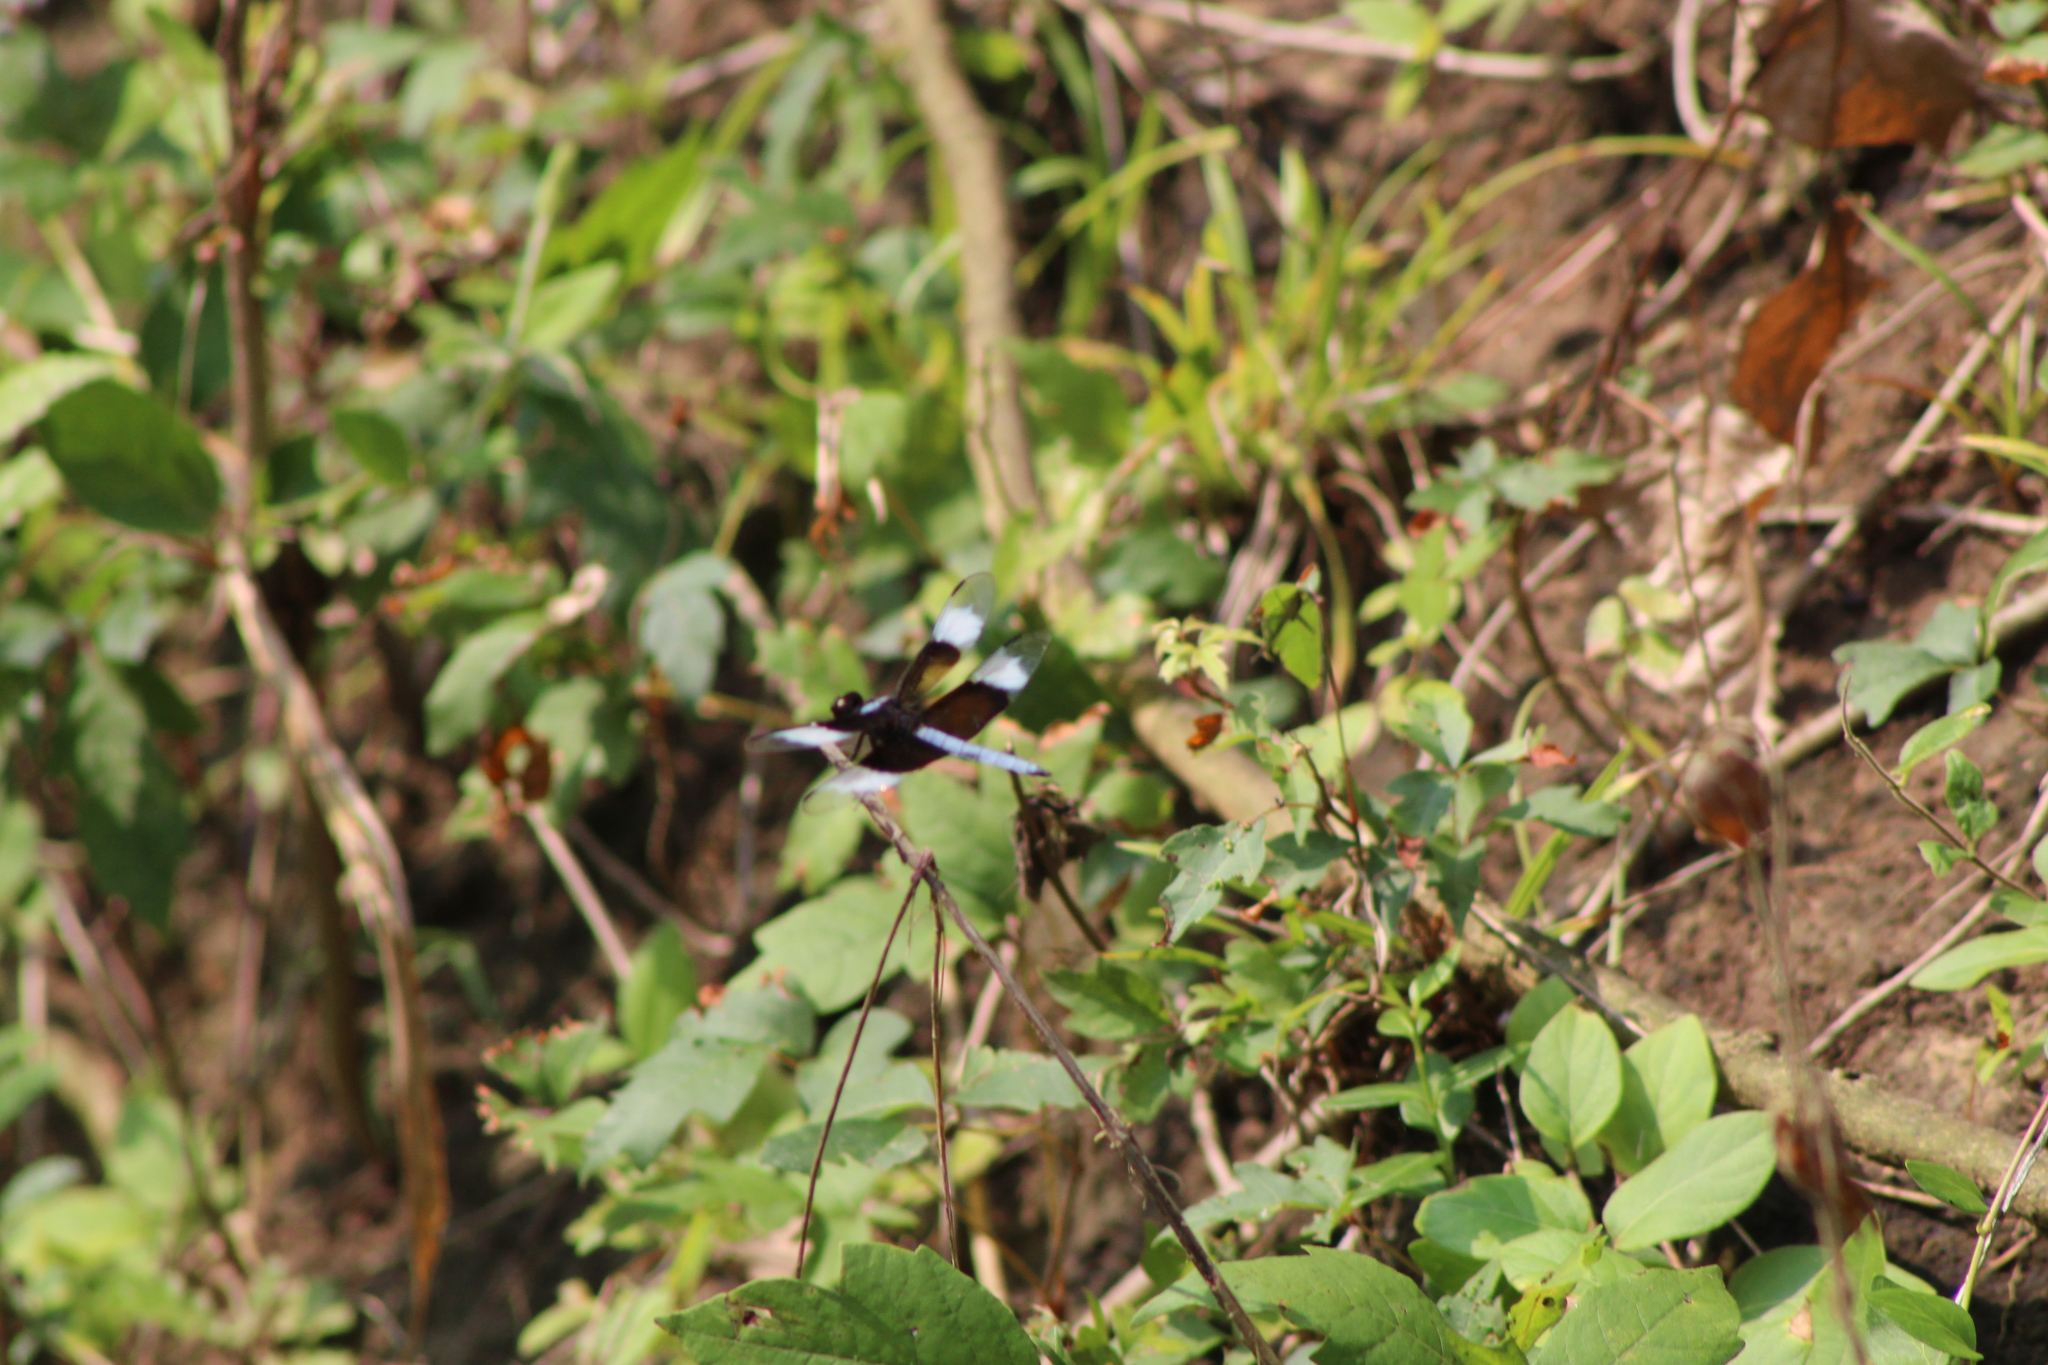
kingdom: Animalia
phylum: Arthropoda
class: Insecta
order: Odonata
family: Libellulidae
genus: Libellula
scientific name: Libellula luctuosa
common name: Widow skimmer
